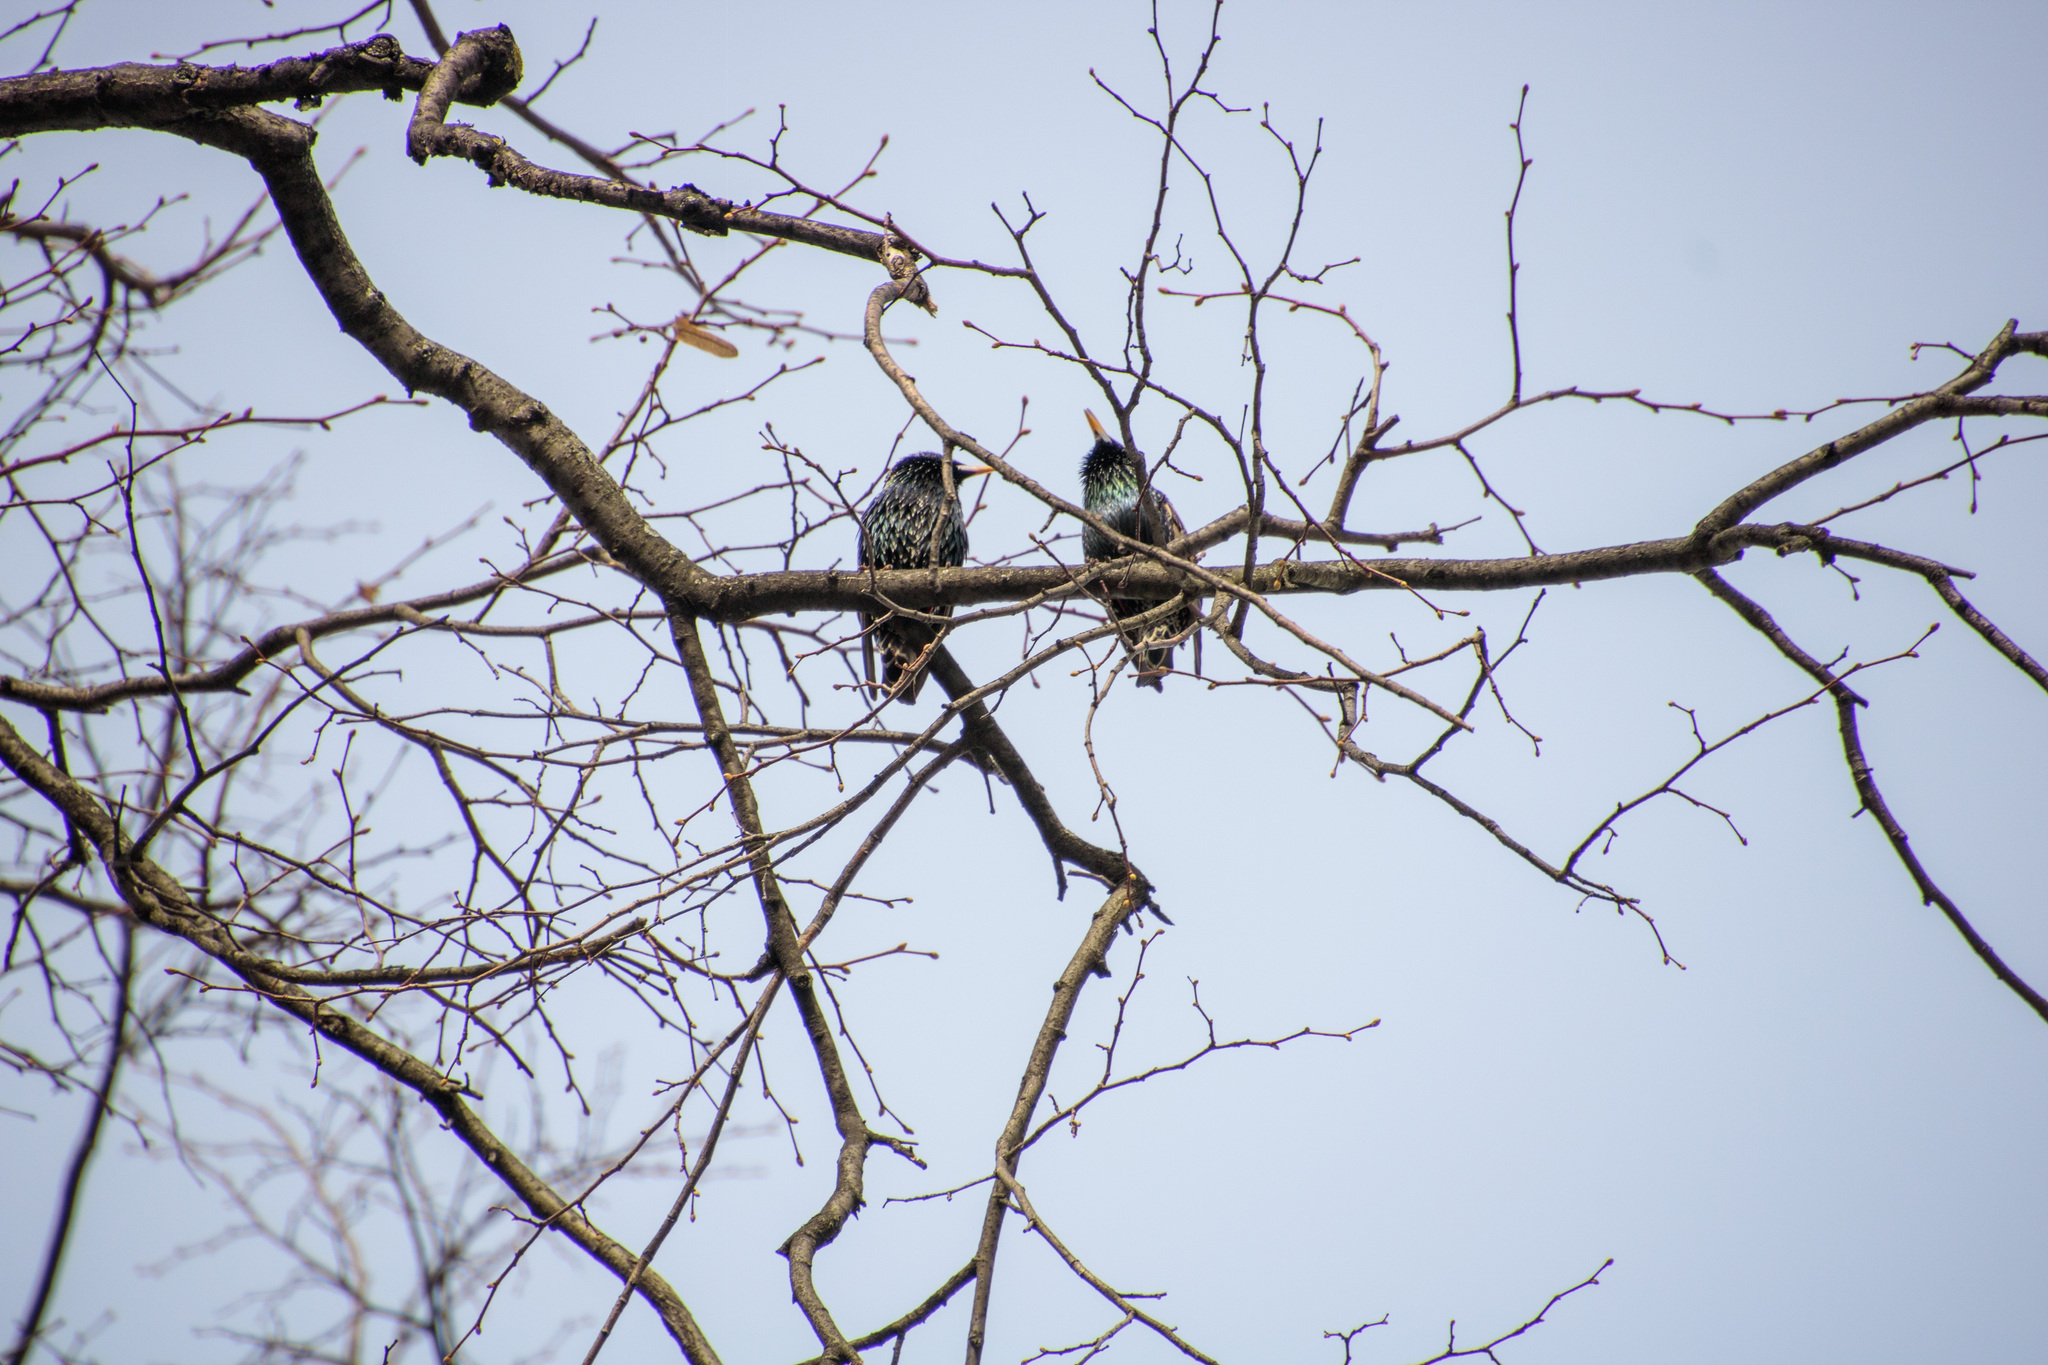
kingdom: Animalia
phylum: Chordata
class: Aves
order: Passeriformes
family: Sturnidae
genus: Sturnus
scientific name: Sturnus vulgaris
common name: Common starling
